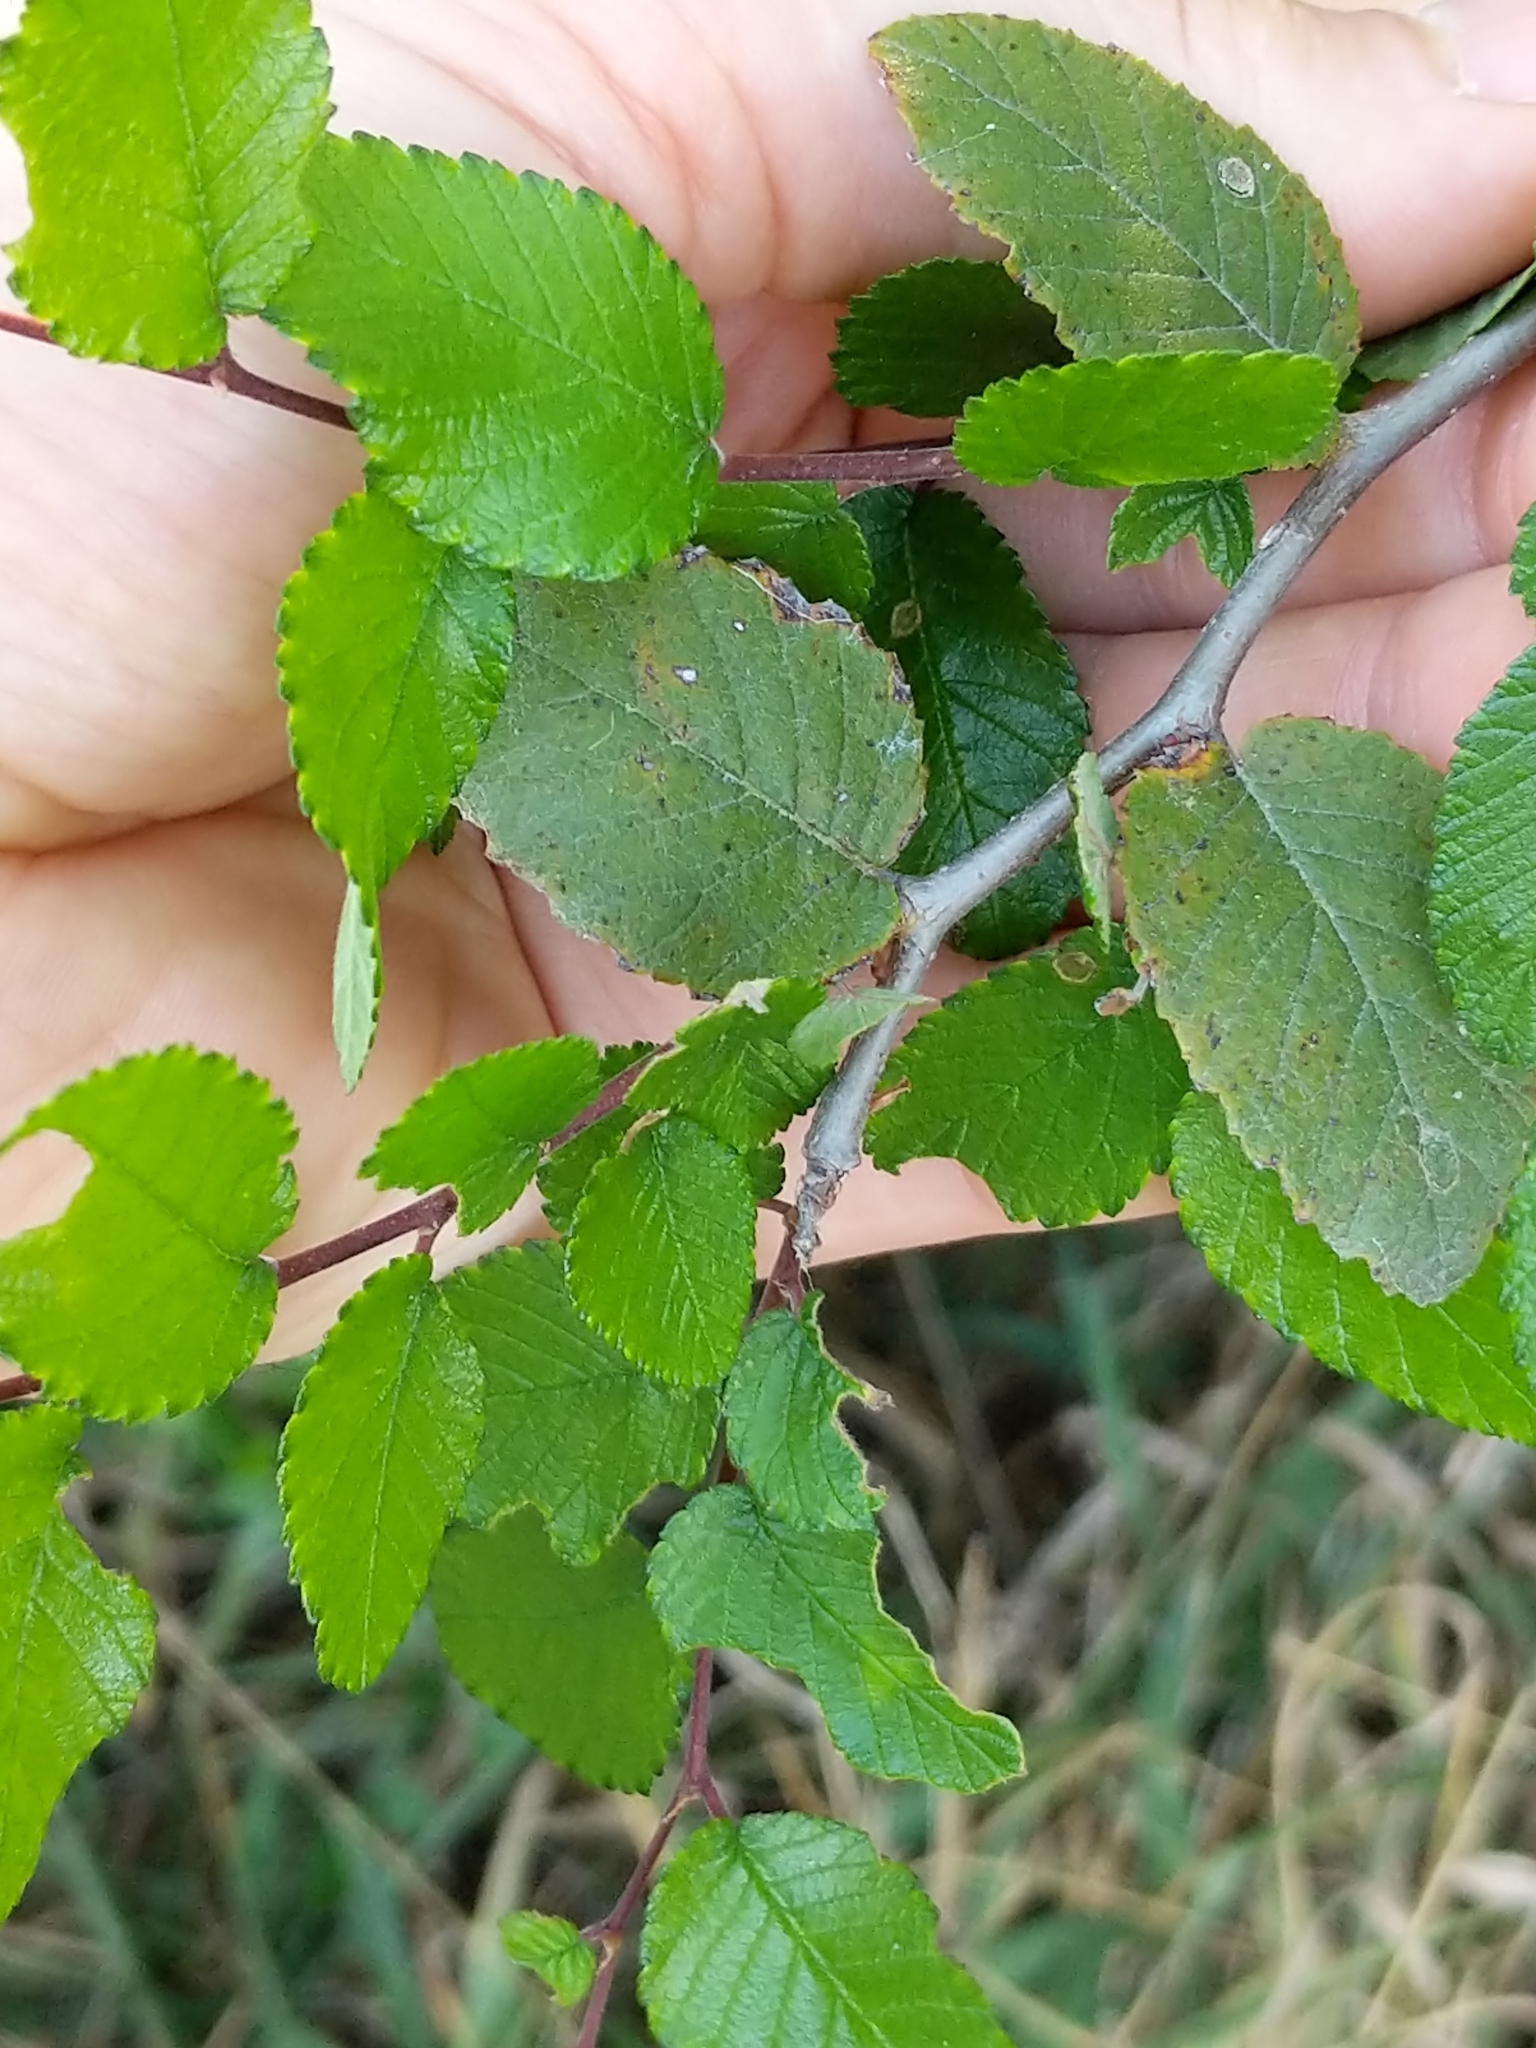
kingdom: Plantae
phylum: Tracheophyta
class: Magnoliopsida
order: Rosales
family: Ulmaceae
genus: Ulmus
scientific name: Ulmus crassifolia
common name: Basket elm
